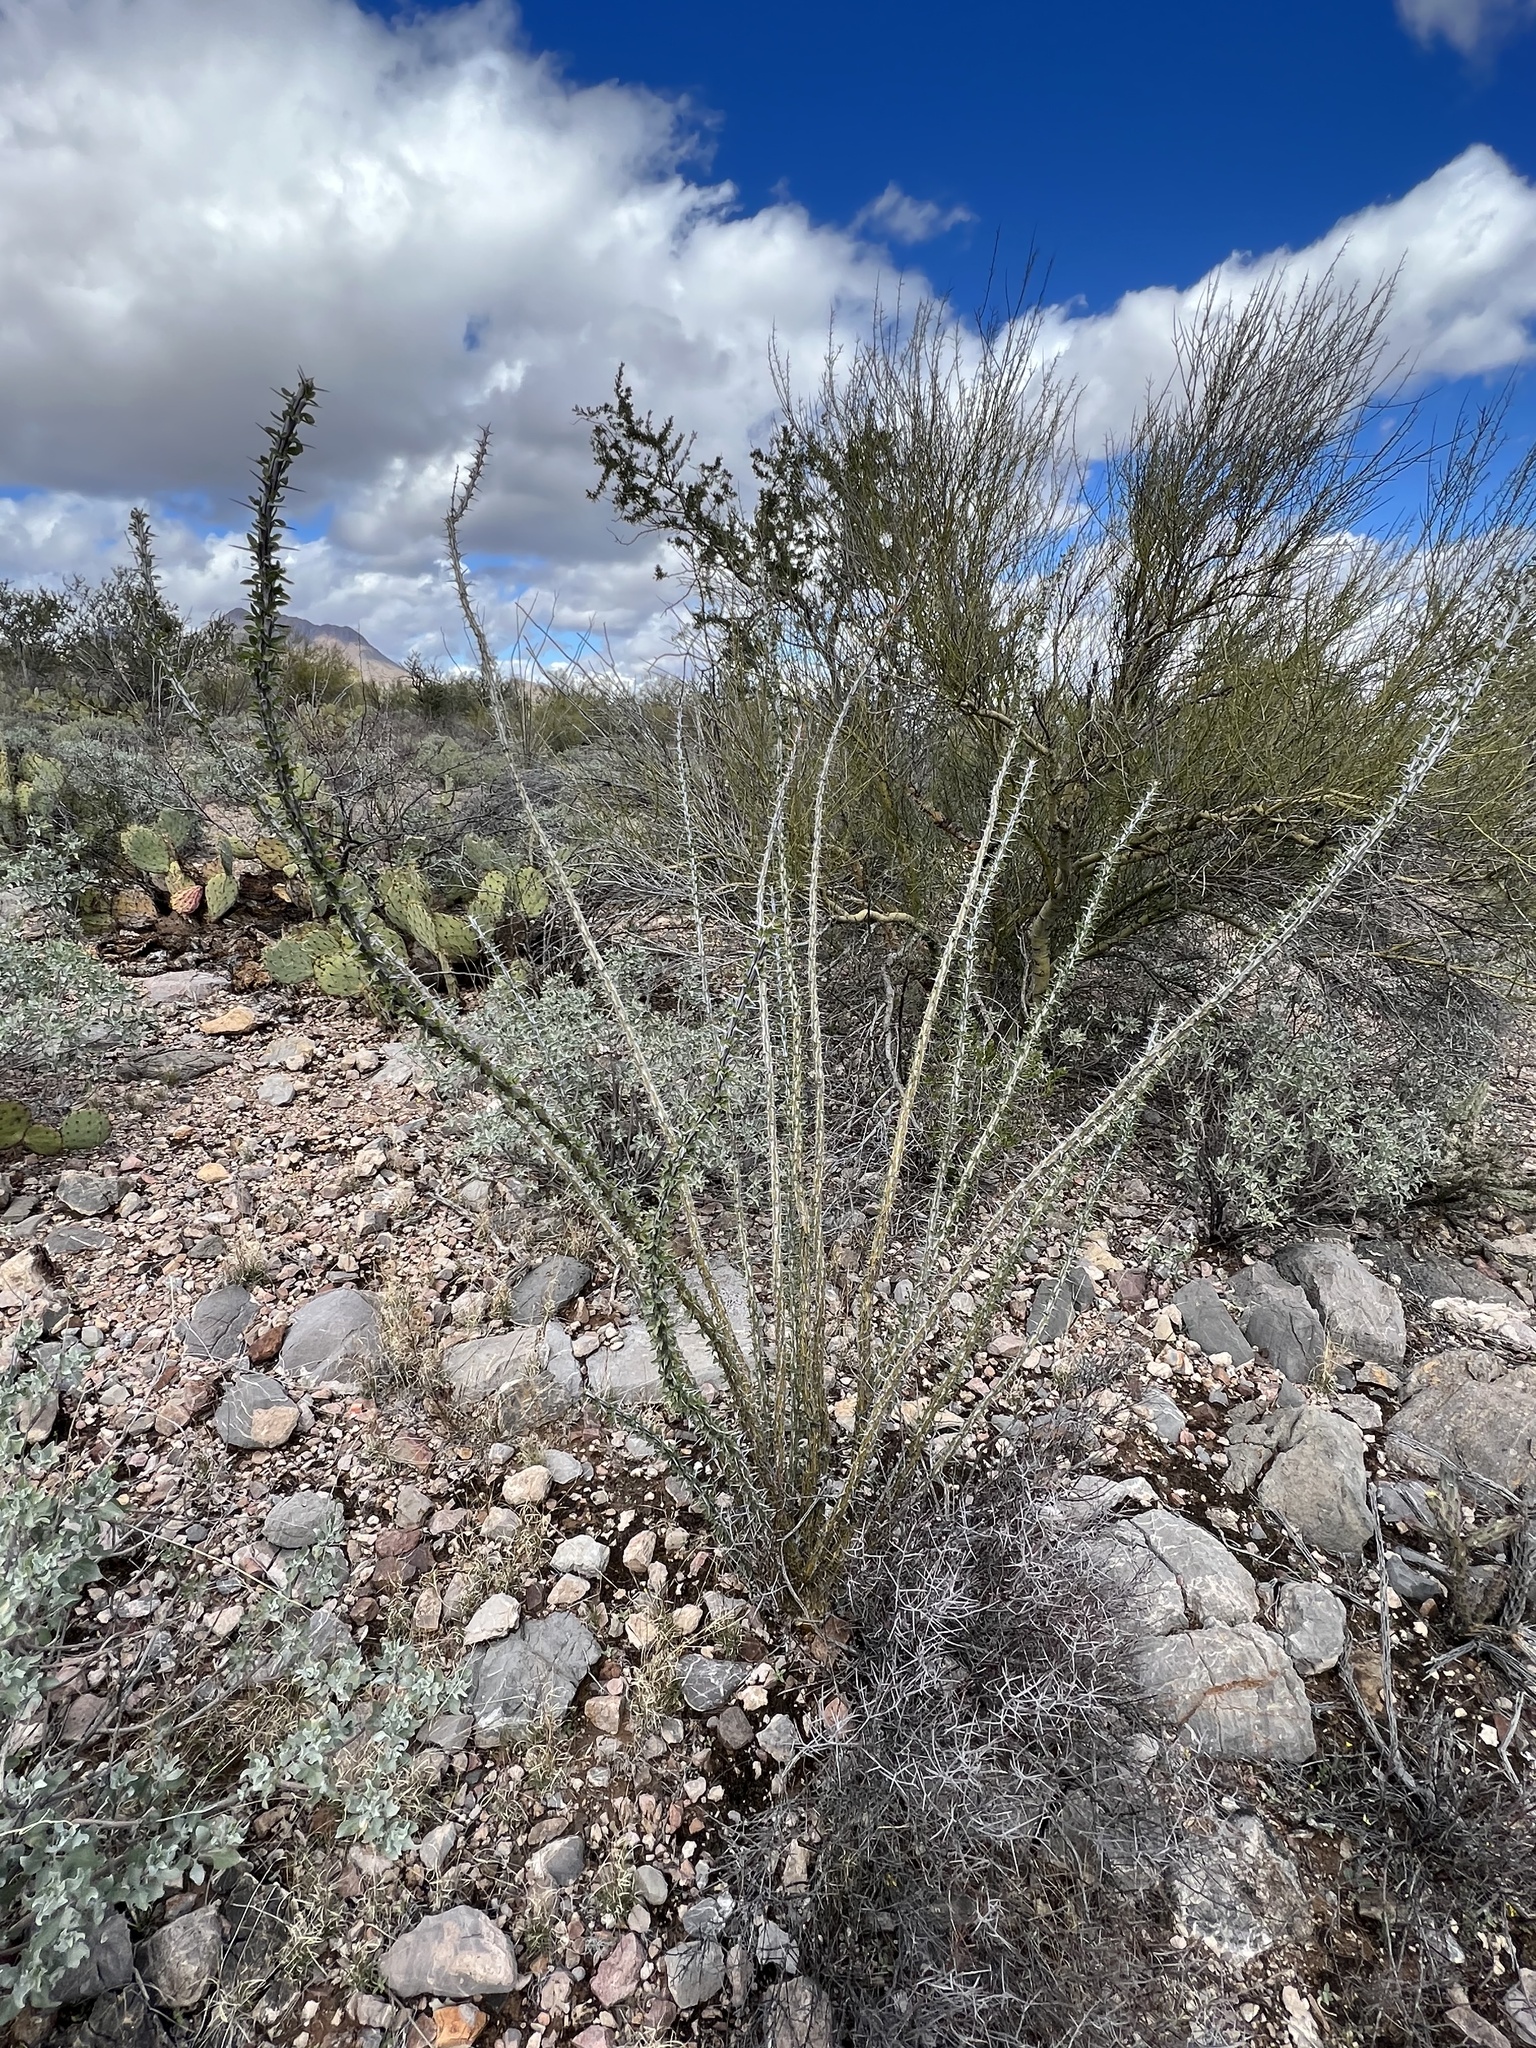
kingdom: Plantae
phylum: Tracheophyta
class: Magnoliopsida
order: Ericales
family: Fouquieriaceae
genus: Fouquieria
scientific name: Fouquieria splendens
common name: Vine-cactus
